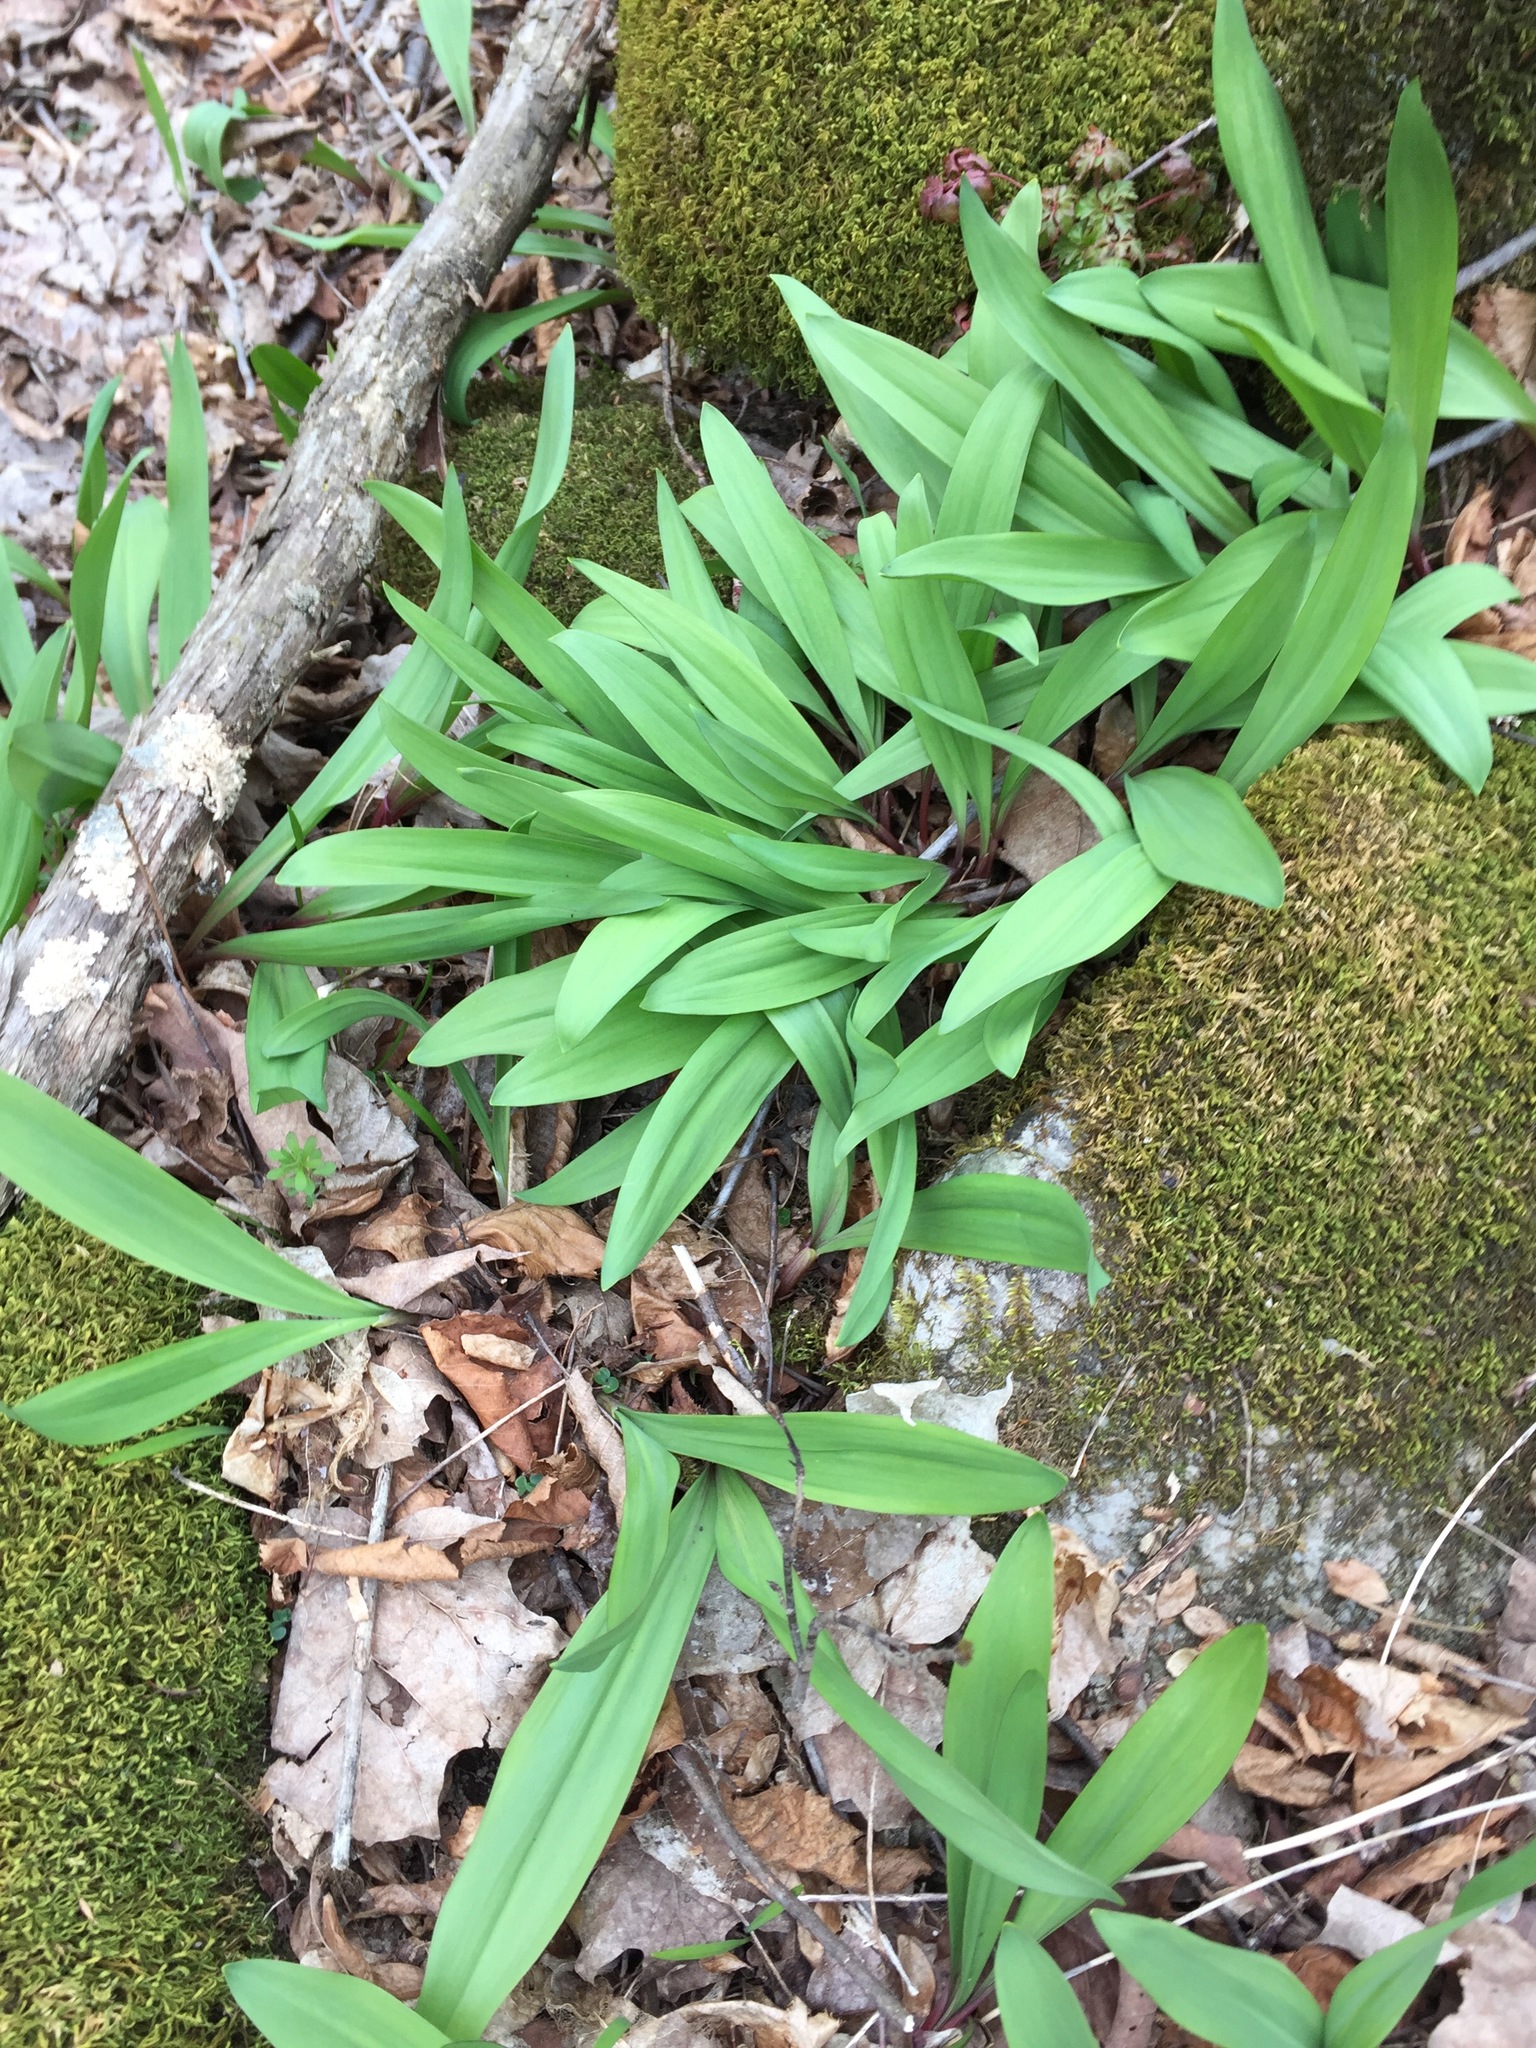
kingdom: Plantae
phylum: Tracheophyta
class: Liliopsida
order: Asparagales
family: Amaryllidaceae
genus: Allium
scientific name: Allium tricoccum
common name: Ramp
